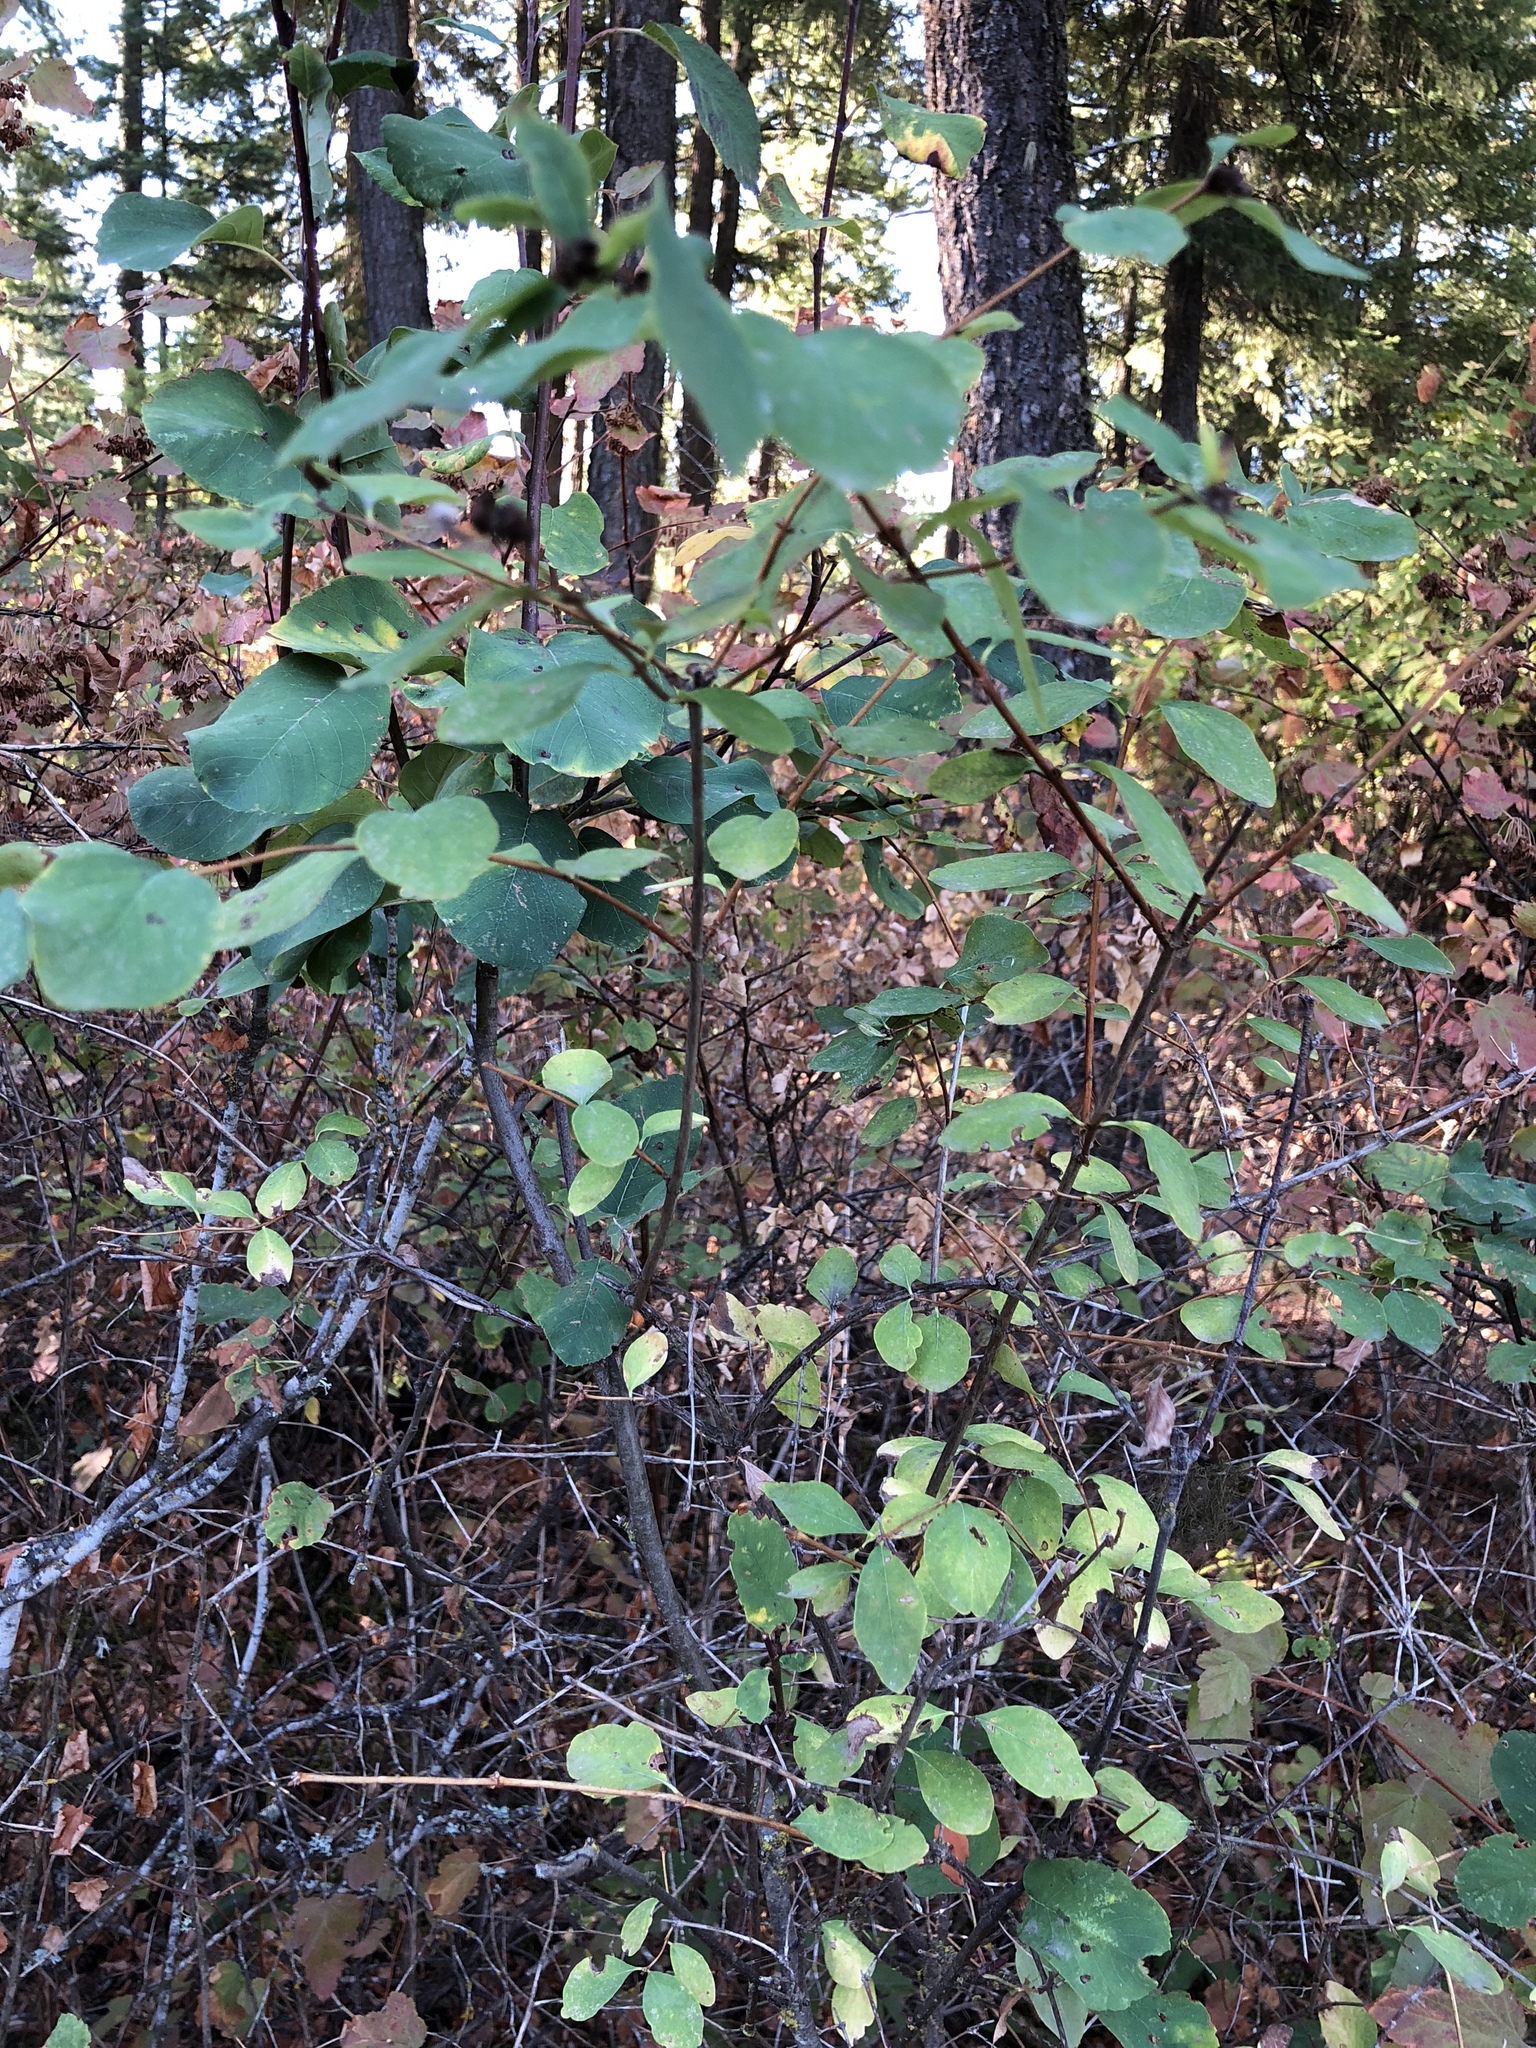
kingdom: Plantae
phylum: Tracheophyta
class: Magnoliopsida
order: Dipsacales
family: Caprifoliaceae
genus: Symphoricarpos
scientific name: Symphoricarpos albus
